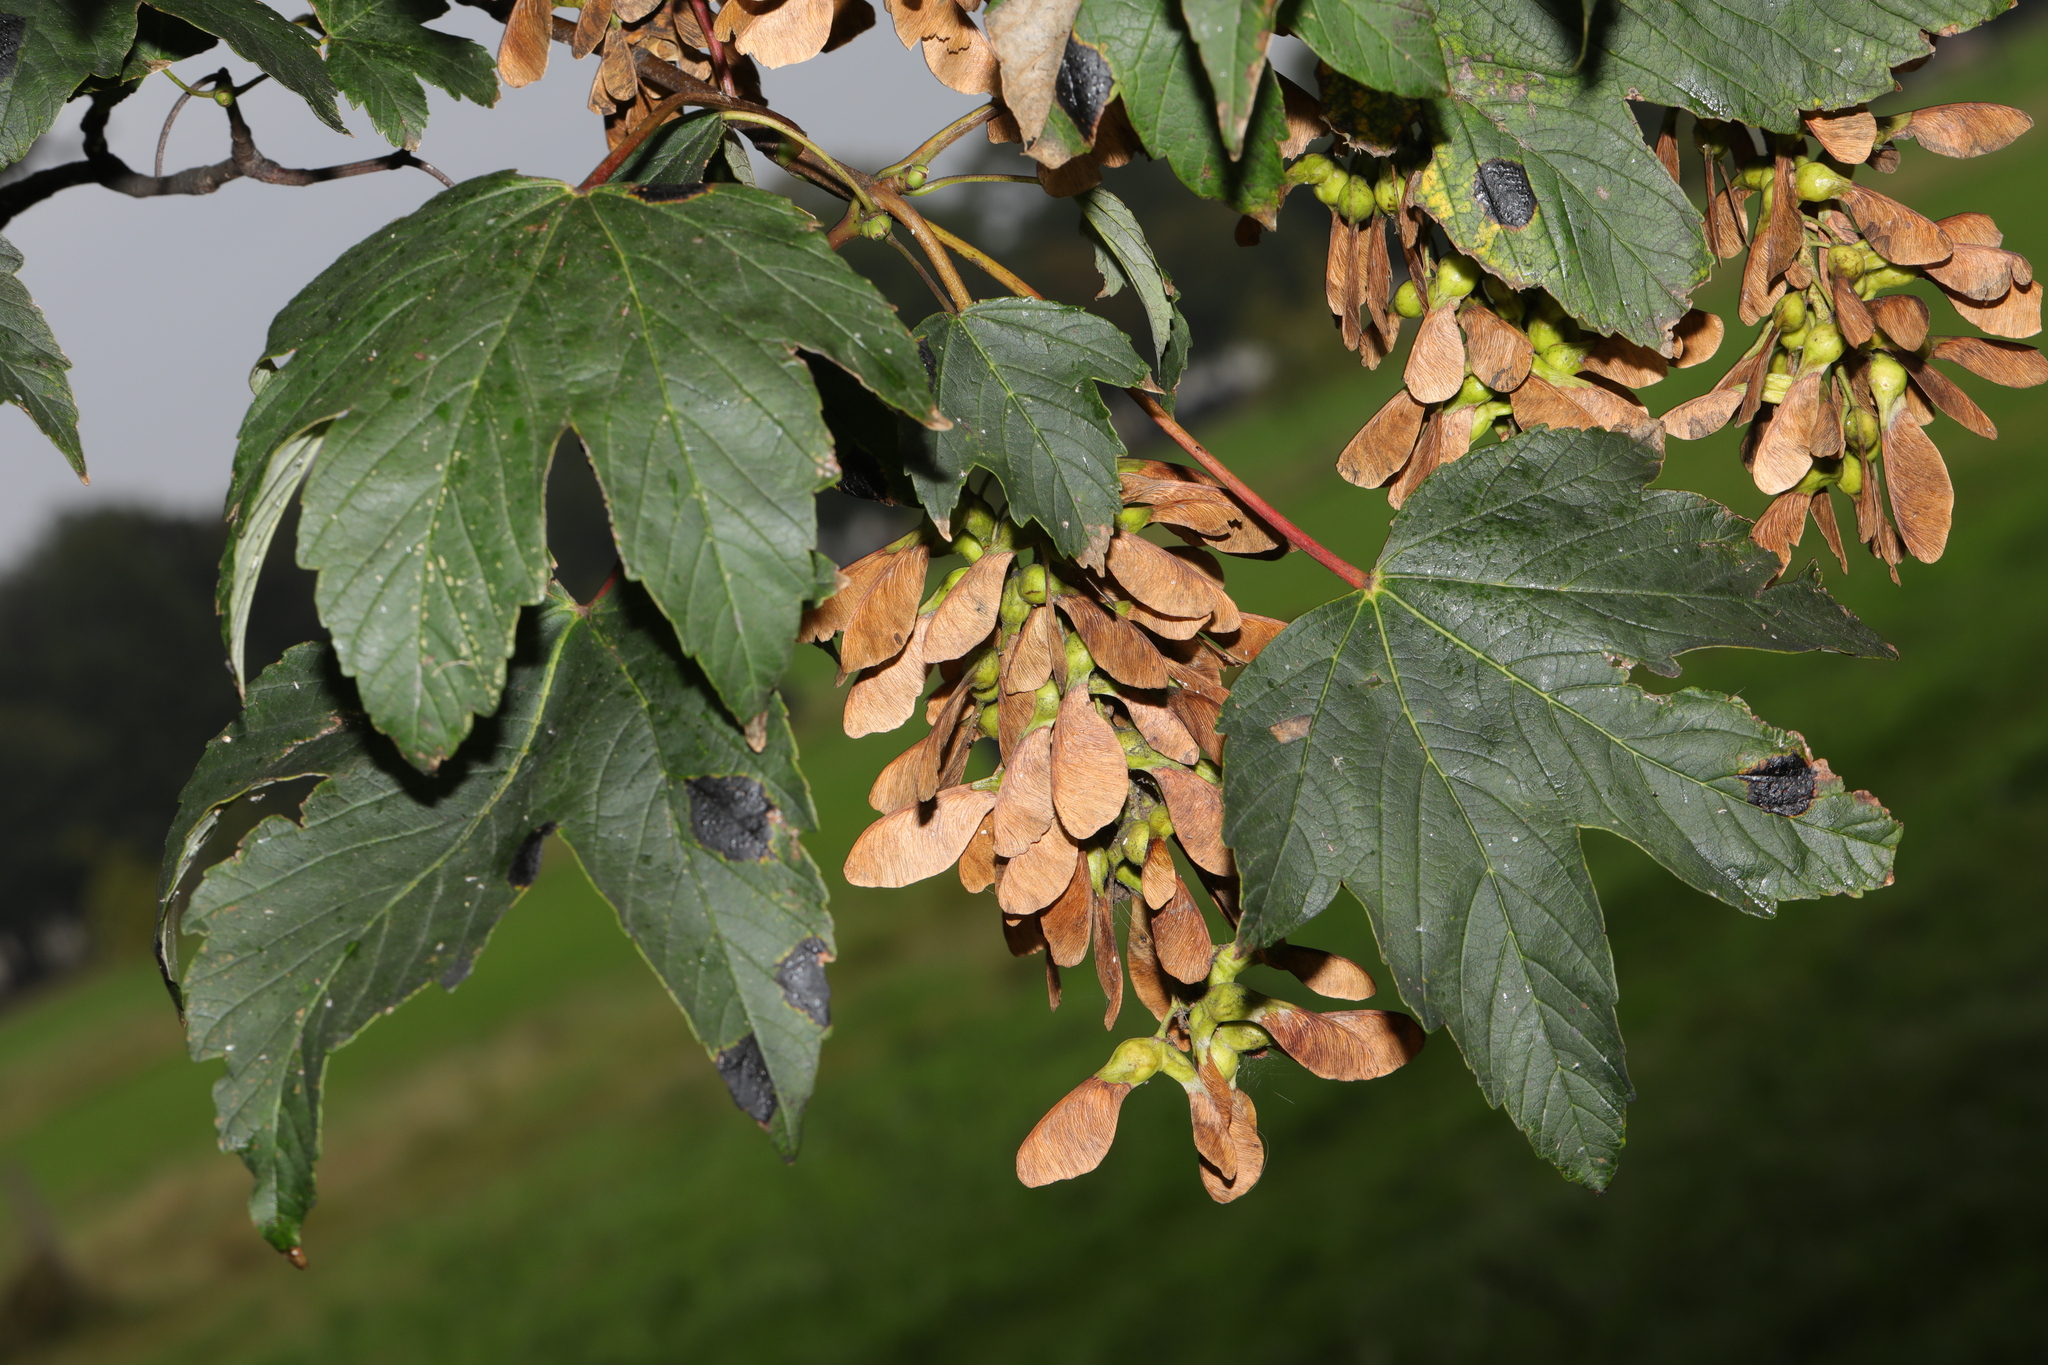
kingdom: Plantae
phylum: Tracheophyta
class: Magnoliopsida
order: Sapindales
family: Sapindaceae
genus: Acer
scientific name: Acer pseudoplatanus
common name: Sycamore
